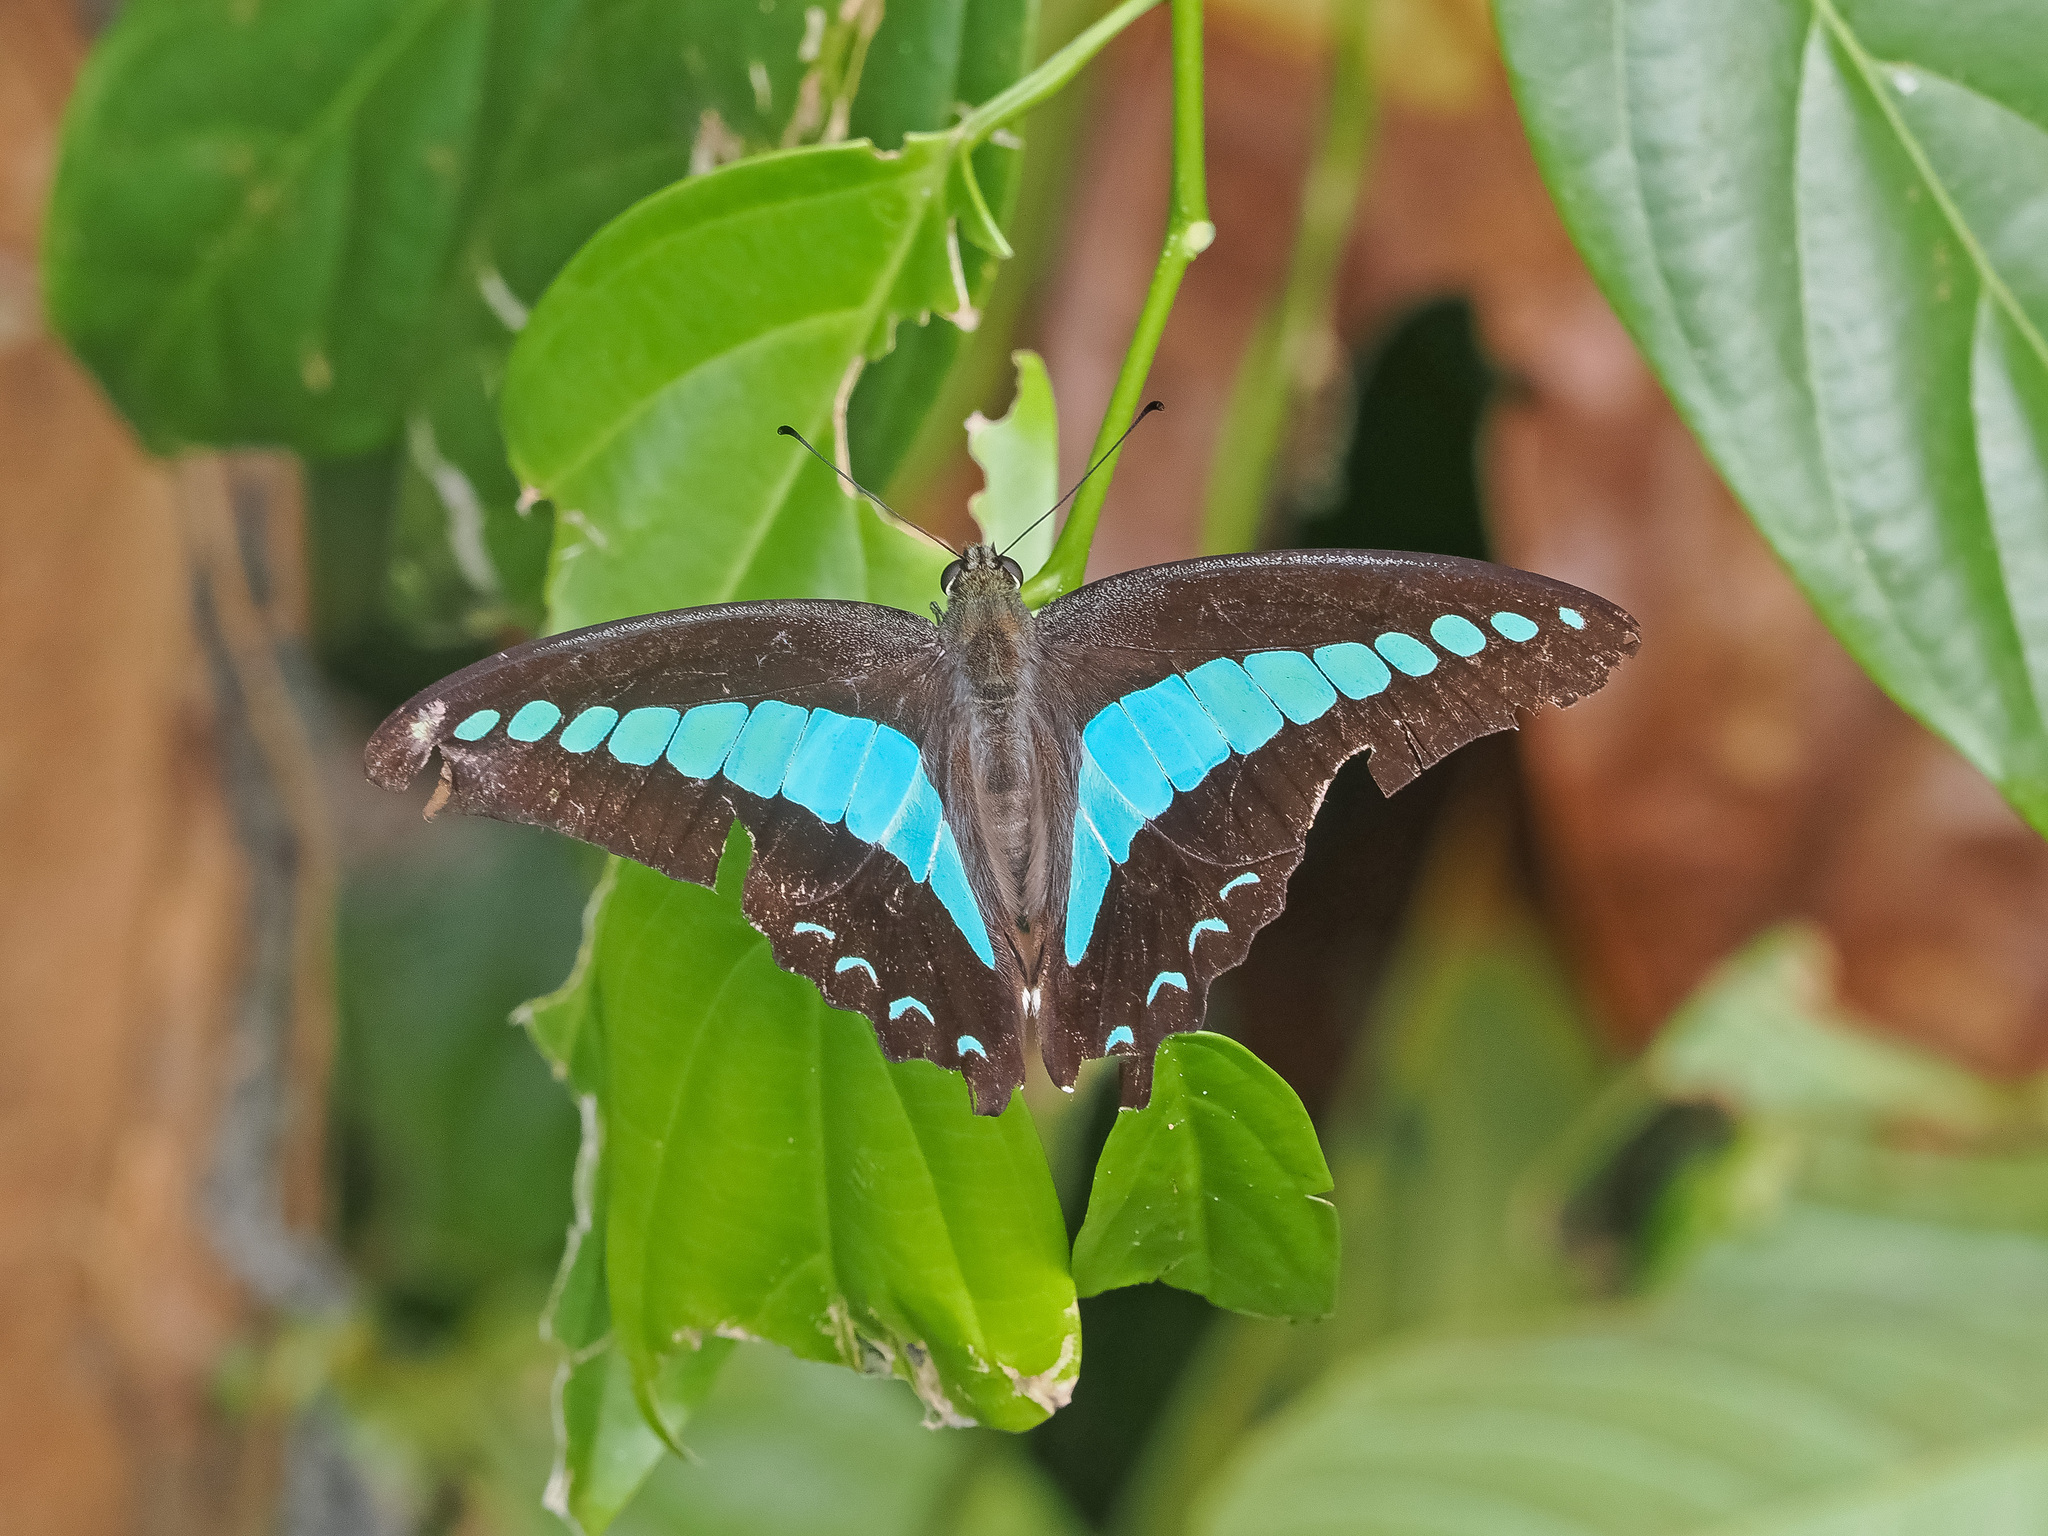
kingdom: Fungi
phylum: Ascomycota
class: Sordariomycetes
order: Microascales
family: Microascaceae
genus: Graphium
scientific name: Graphium sarpedon
